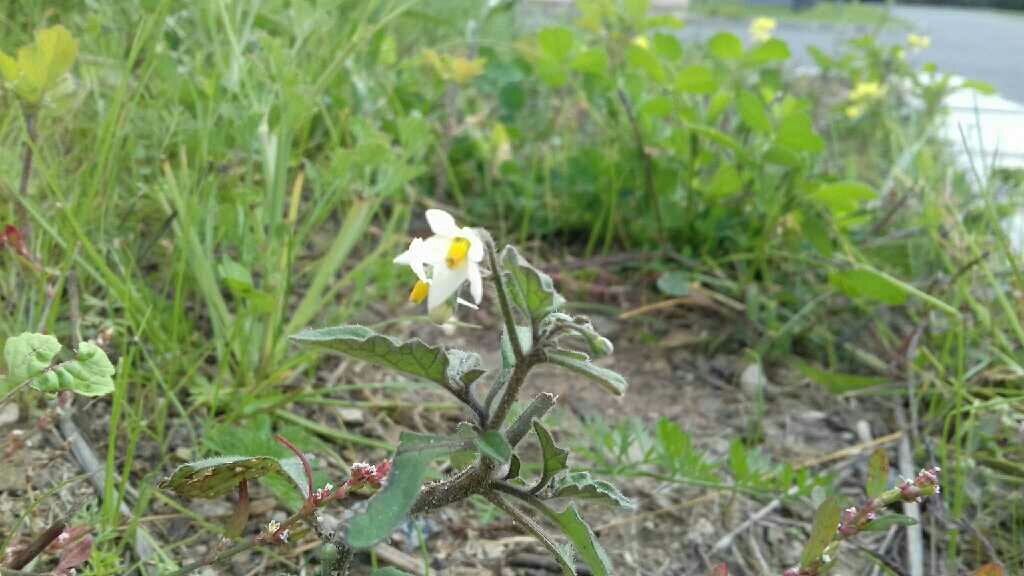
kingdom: Plantae
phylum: Tracheophyta
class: Magnoliopsida
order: Solanales
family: Solanaceae
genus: Solanum
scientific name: Solanum decipiens
